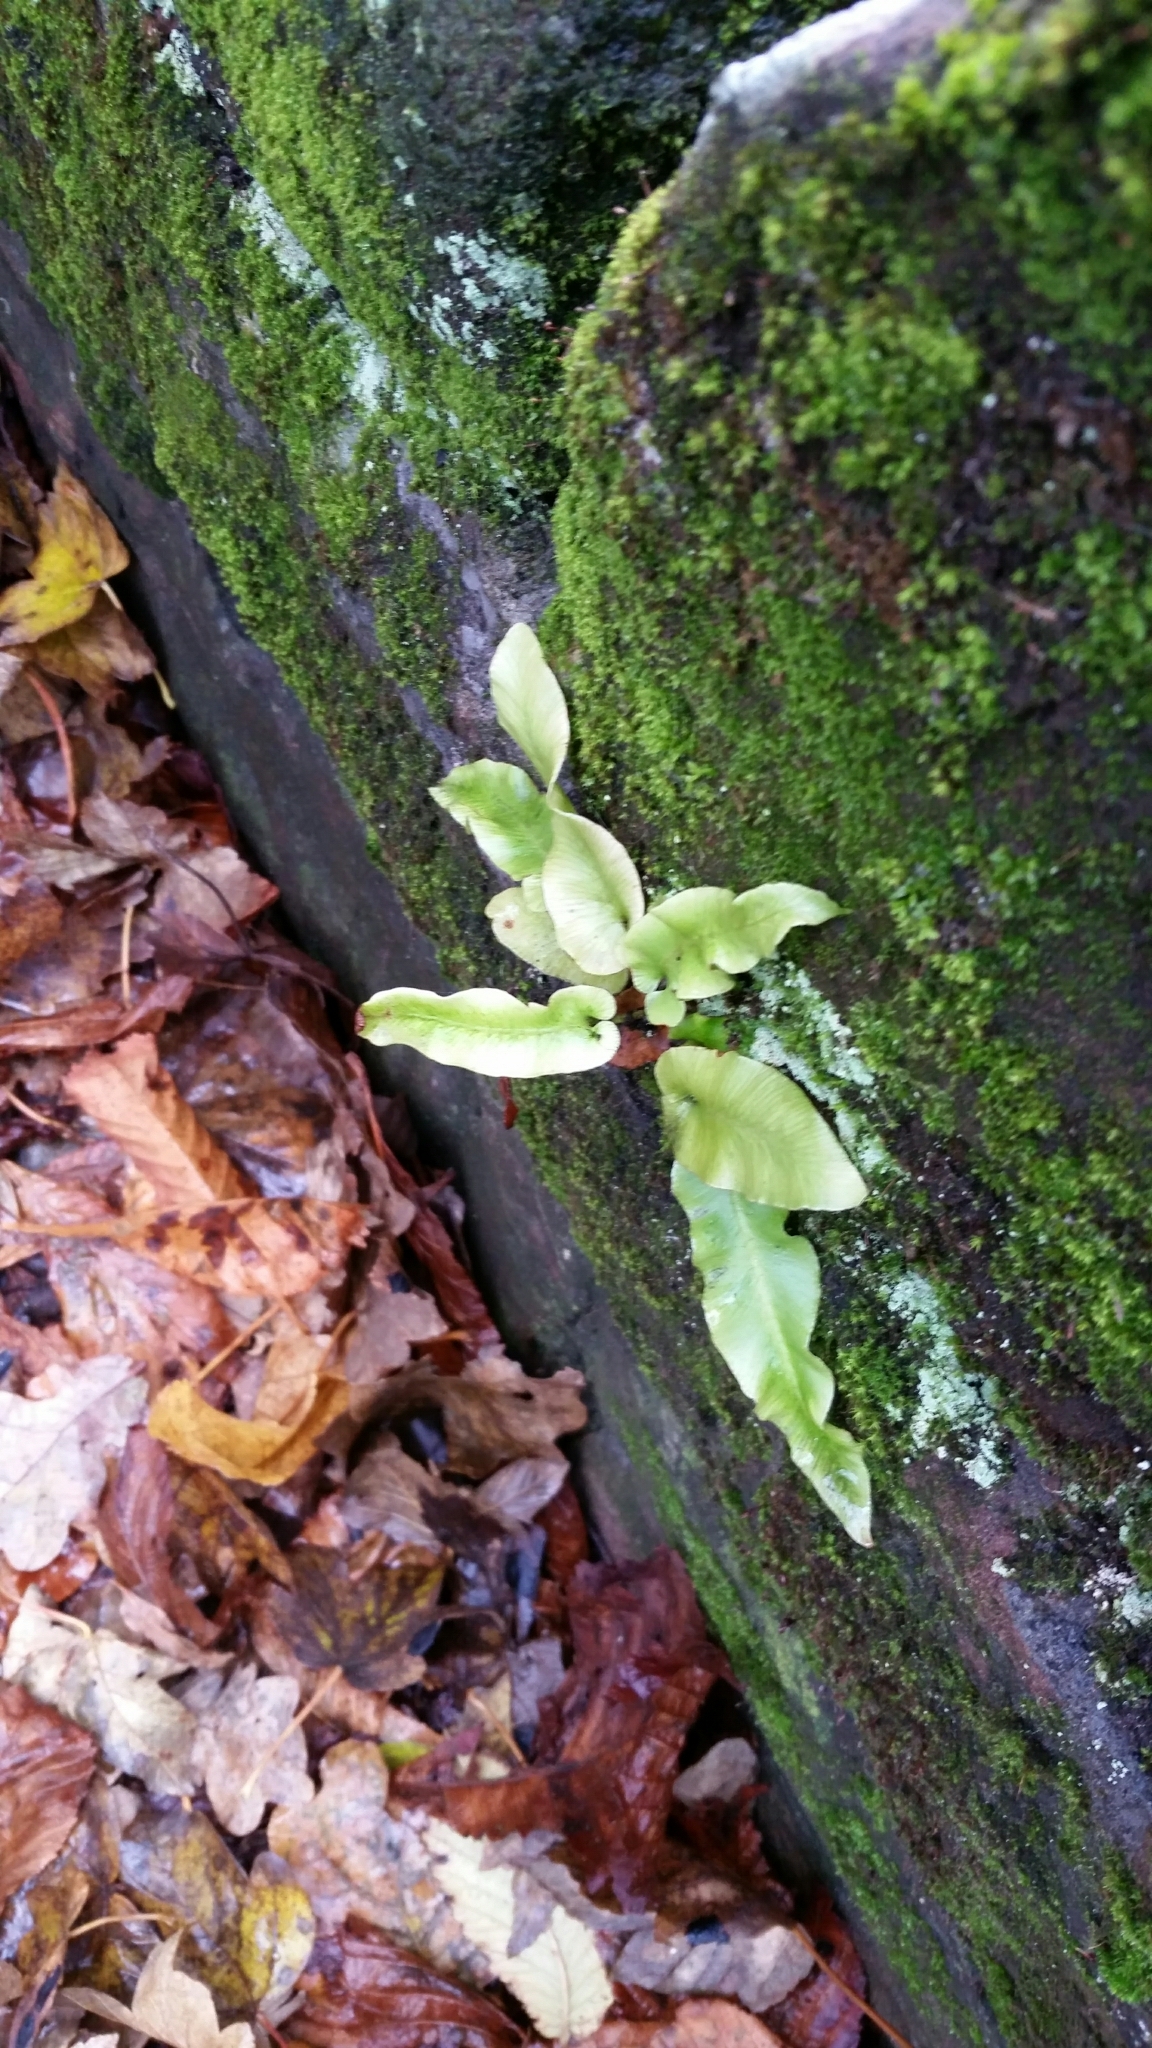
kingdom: Plantae
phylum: Tracheophyta
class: Polypodiopsida
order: Polypodiales
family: Aspleniaceae
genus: Asplenium
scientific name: Asplenium scolopendrium
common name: Hart's-tongue fern
